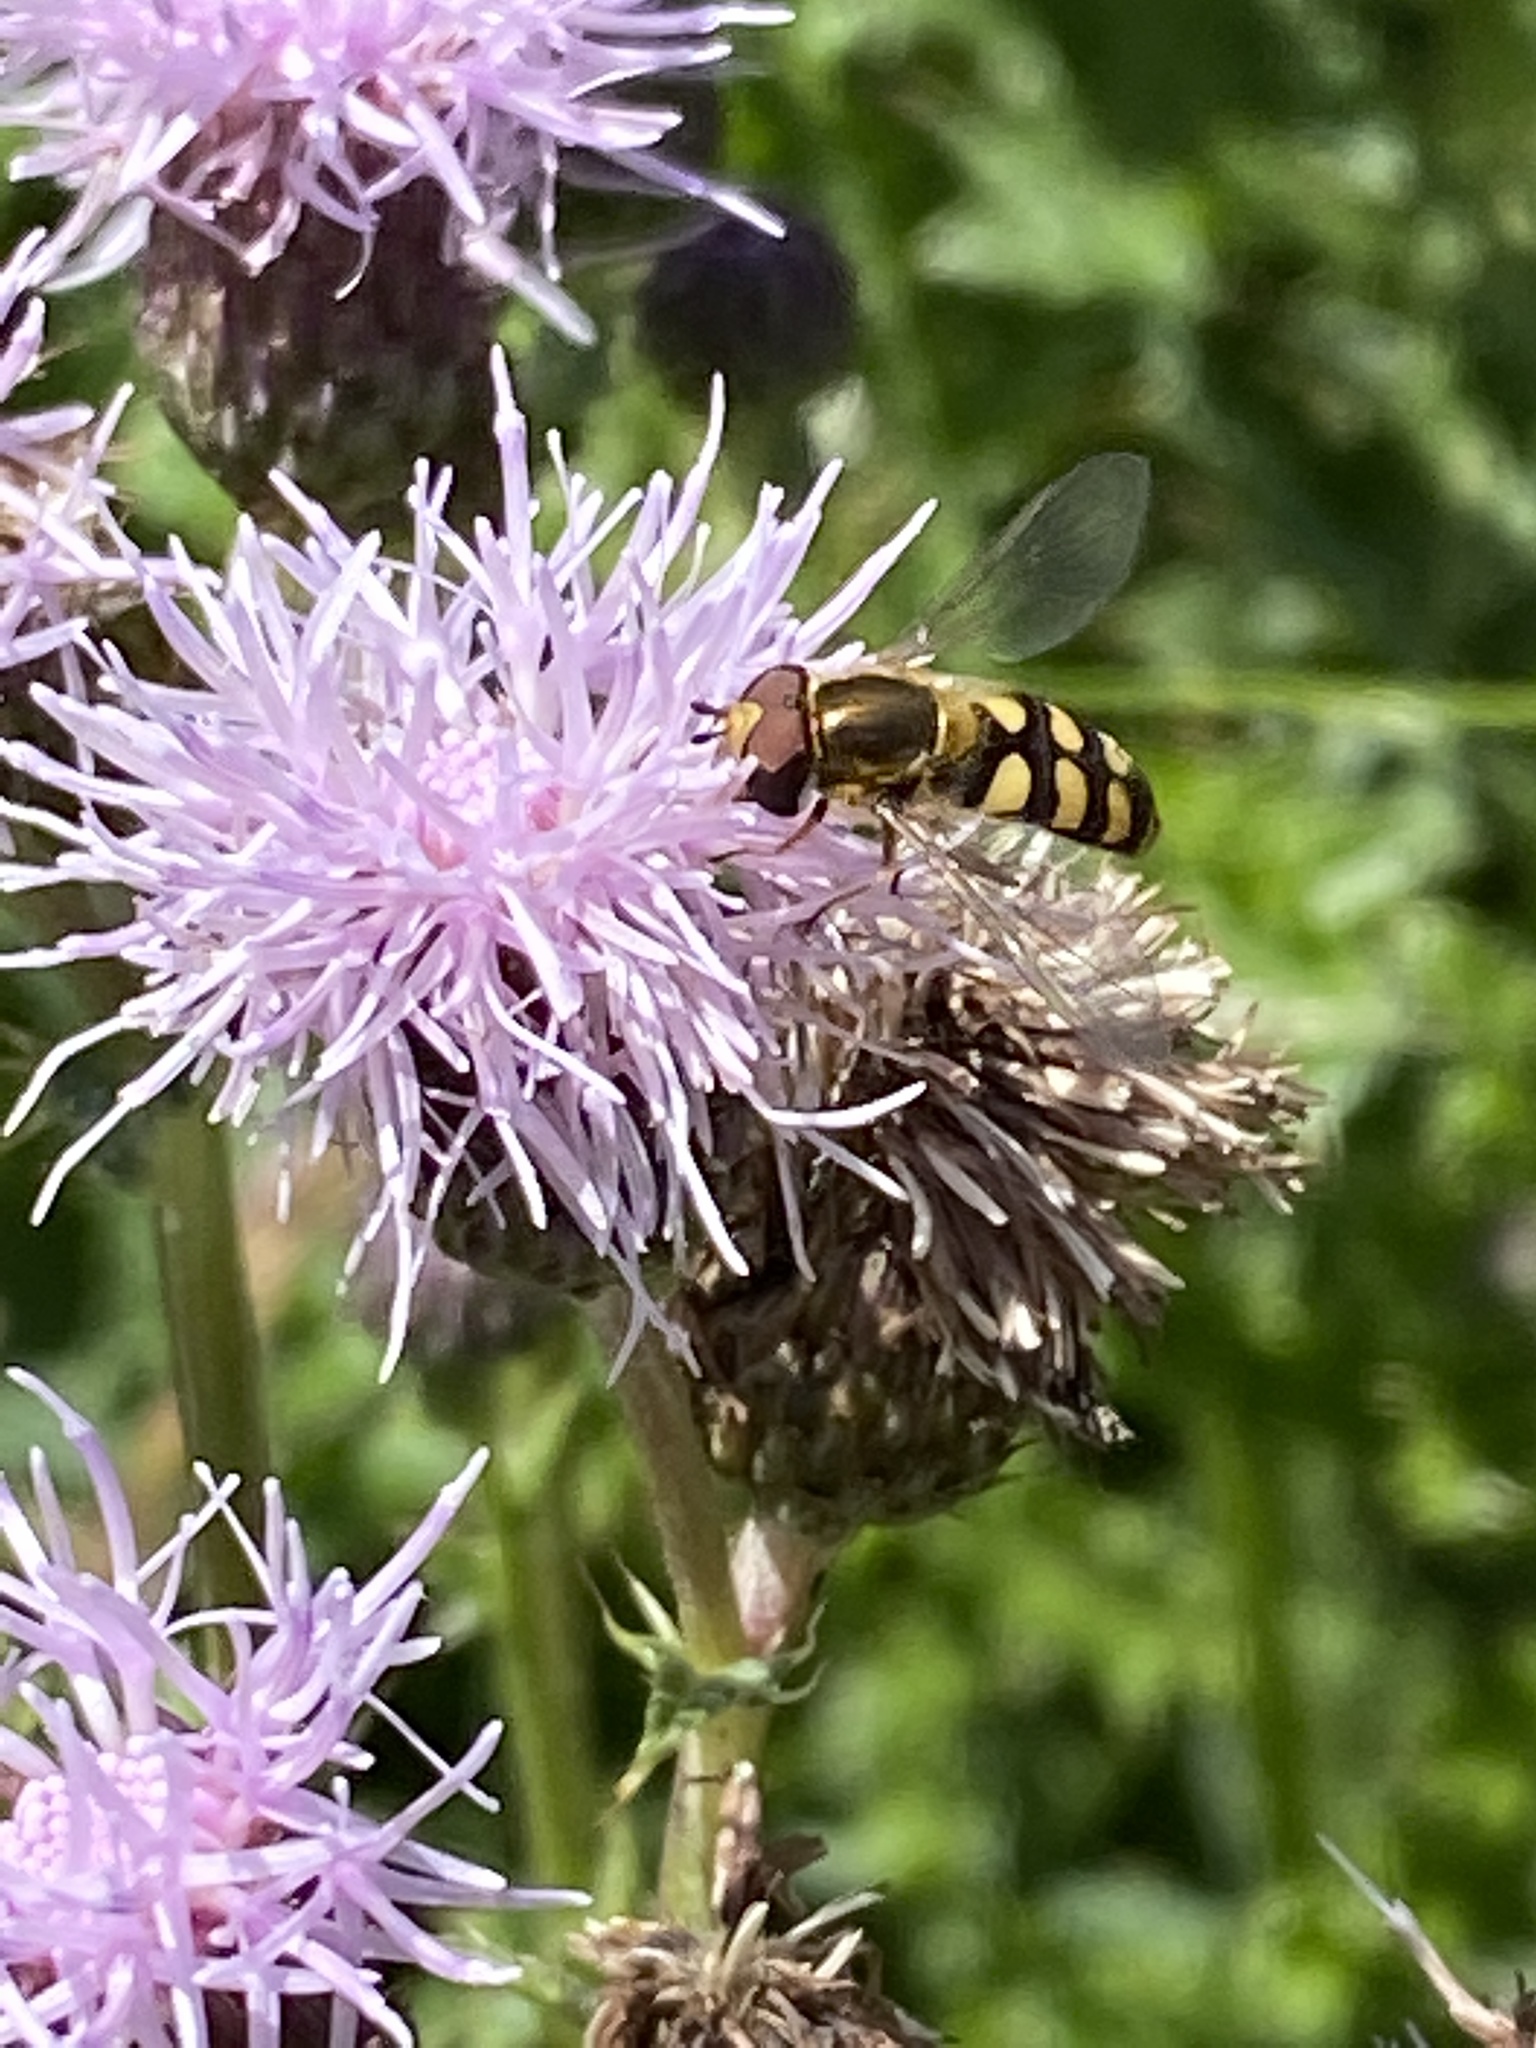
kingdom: Animalia
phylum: Arthropoda
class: Insecta
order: Diptera
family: Syrphidae
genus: Eupeodes
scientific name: Eupeodes
